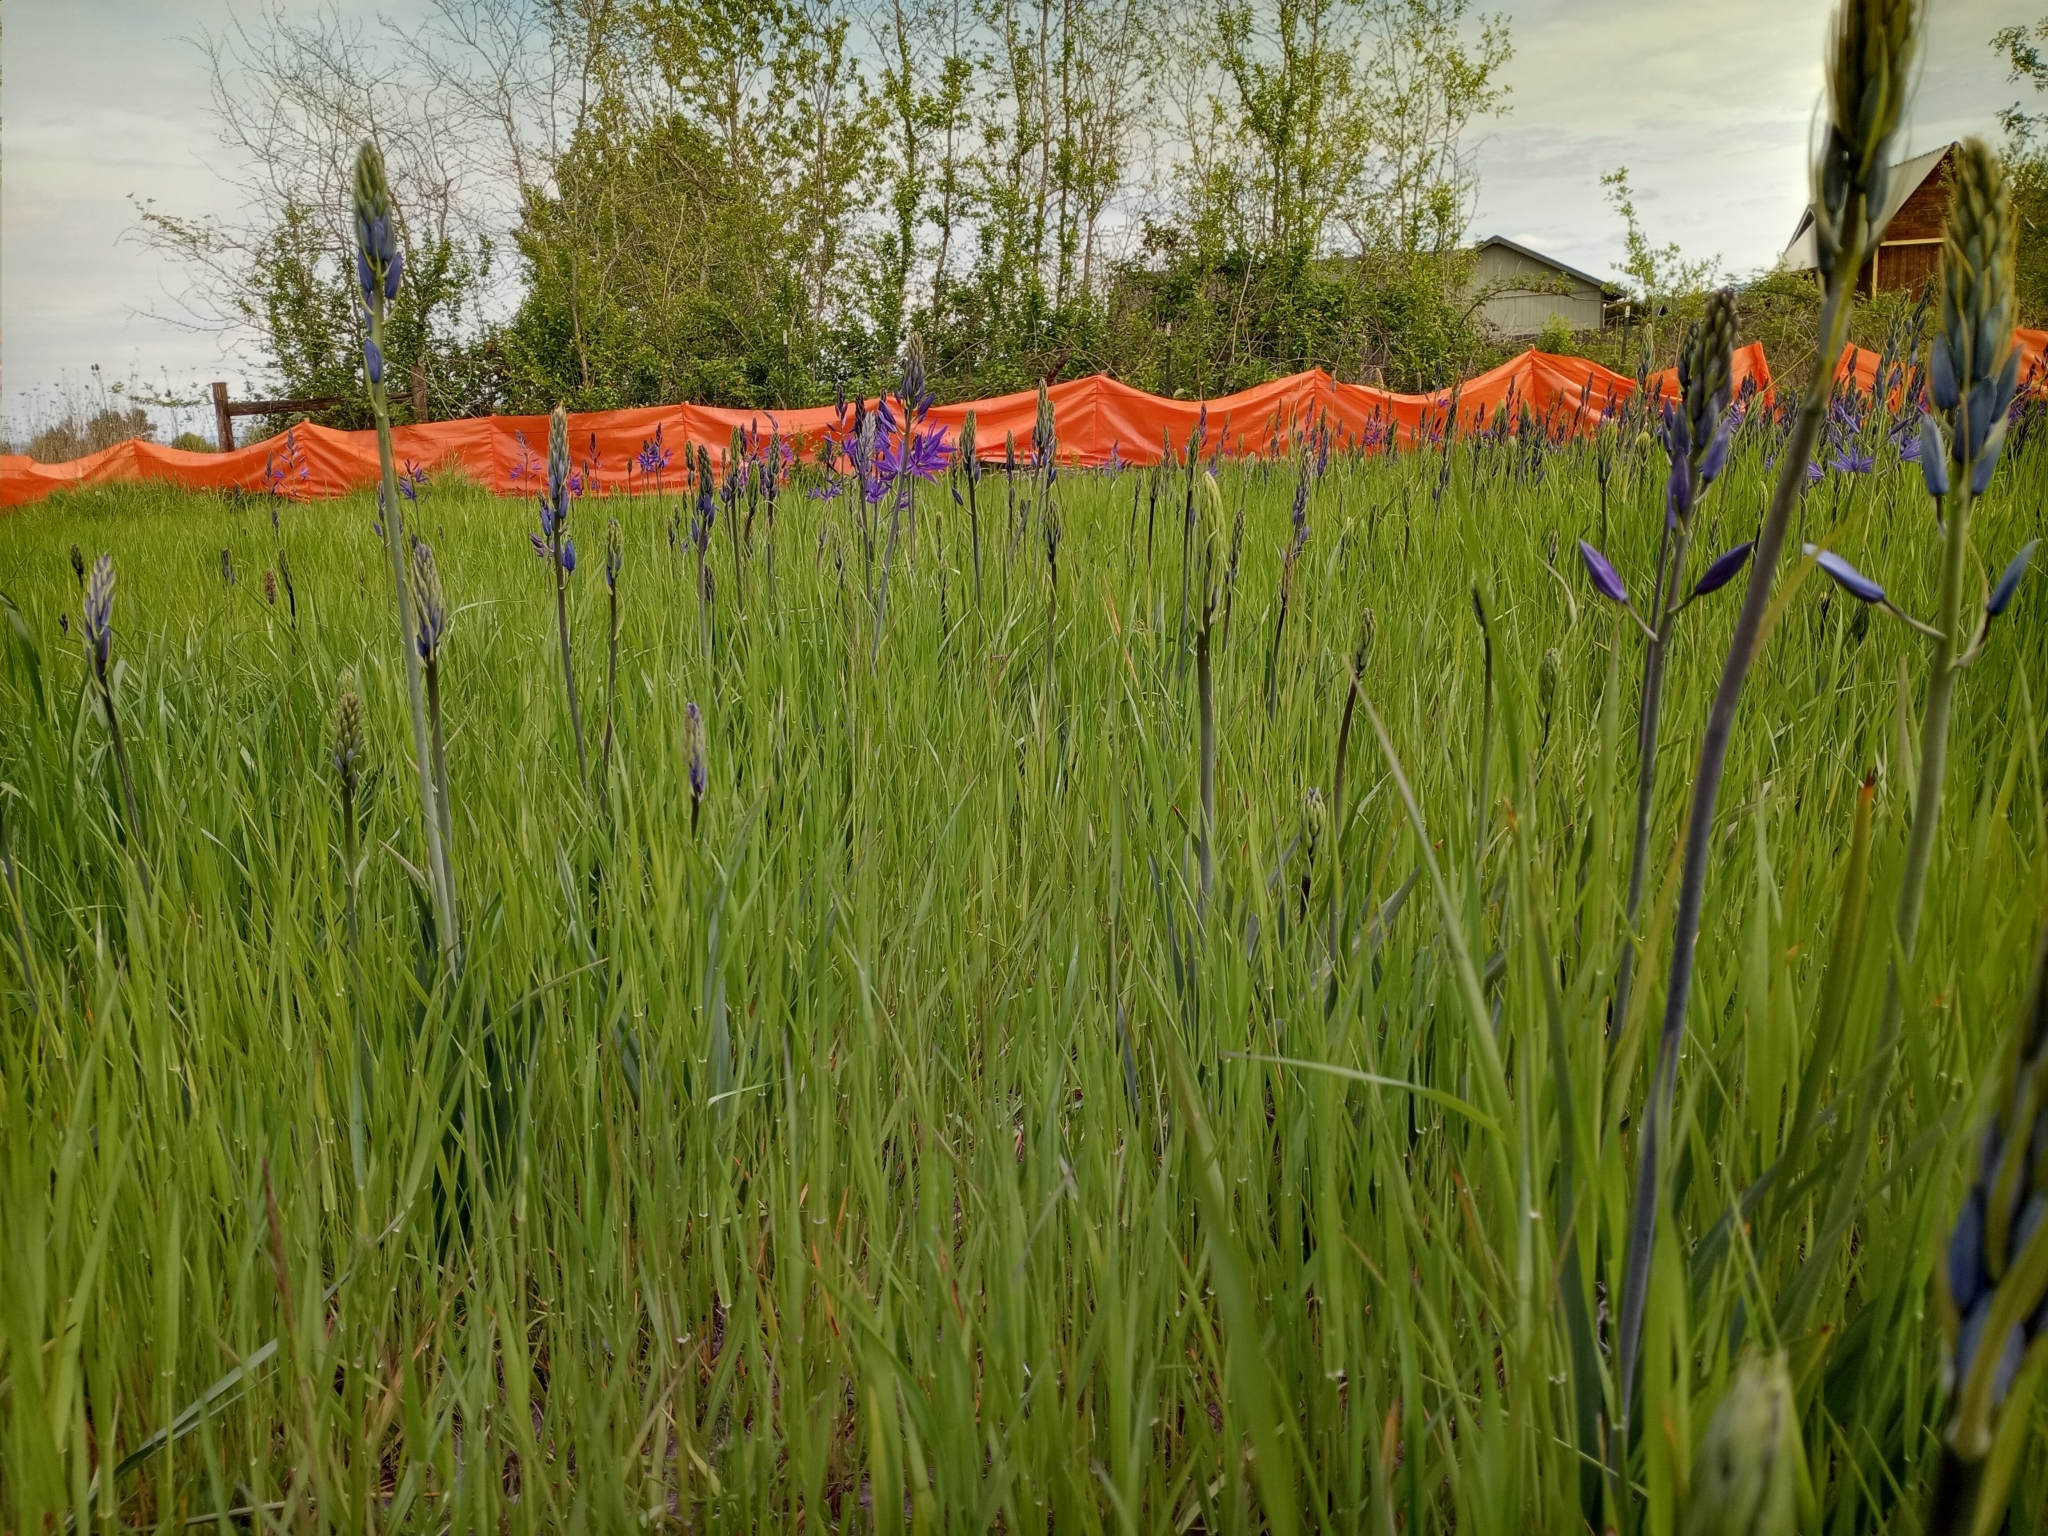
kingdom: Plantae
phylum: Tracheophyta
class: Liliopsida
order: Asparagales
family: Asparagaceae
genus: Camassia
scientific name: Camassia leichtlinii
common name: Leichtlin's camas
